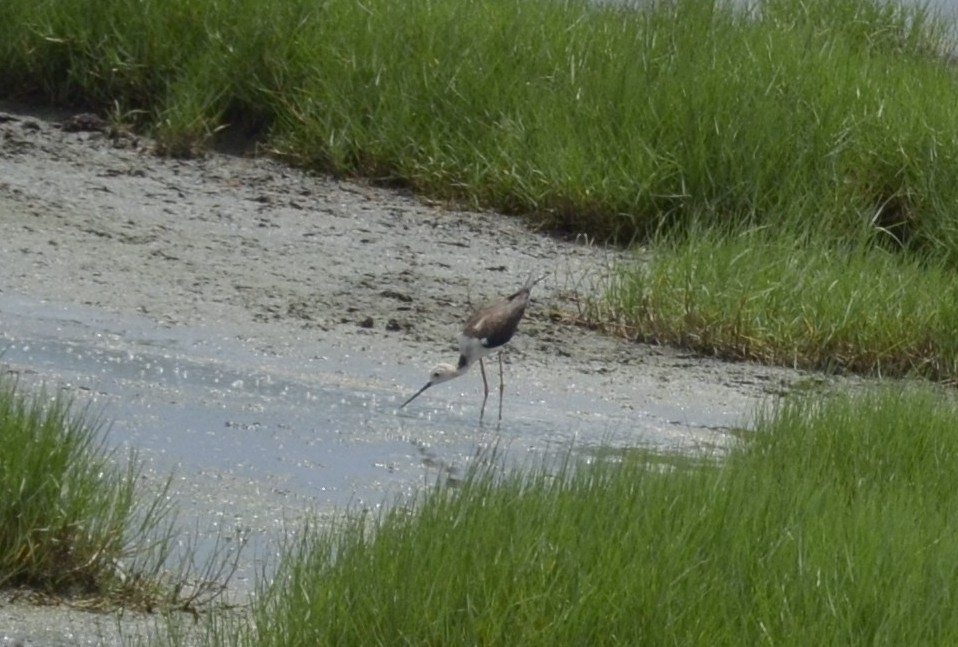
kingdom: Animalia
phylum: Chordata
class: Aves
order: Charadriiformes
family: Recurvirostridae
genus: Himantopus
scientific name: Himantopus himantopus
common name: Black-winged stilt
